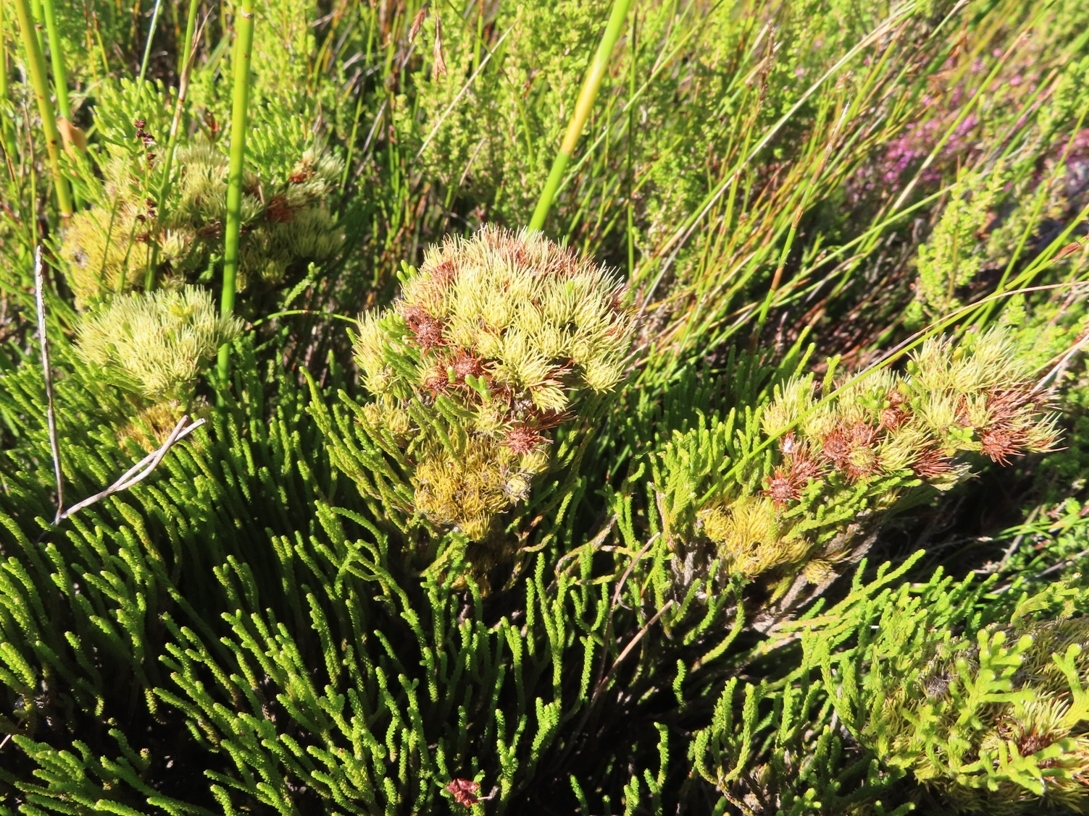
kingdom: Plantae
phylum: Tracheophyta
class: Magnoliopsida
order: Bruniales
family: Bruniaceae
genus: Brunia
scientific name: Brunia paleacea
